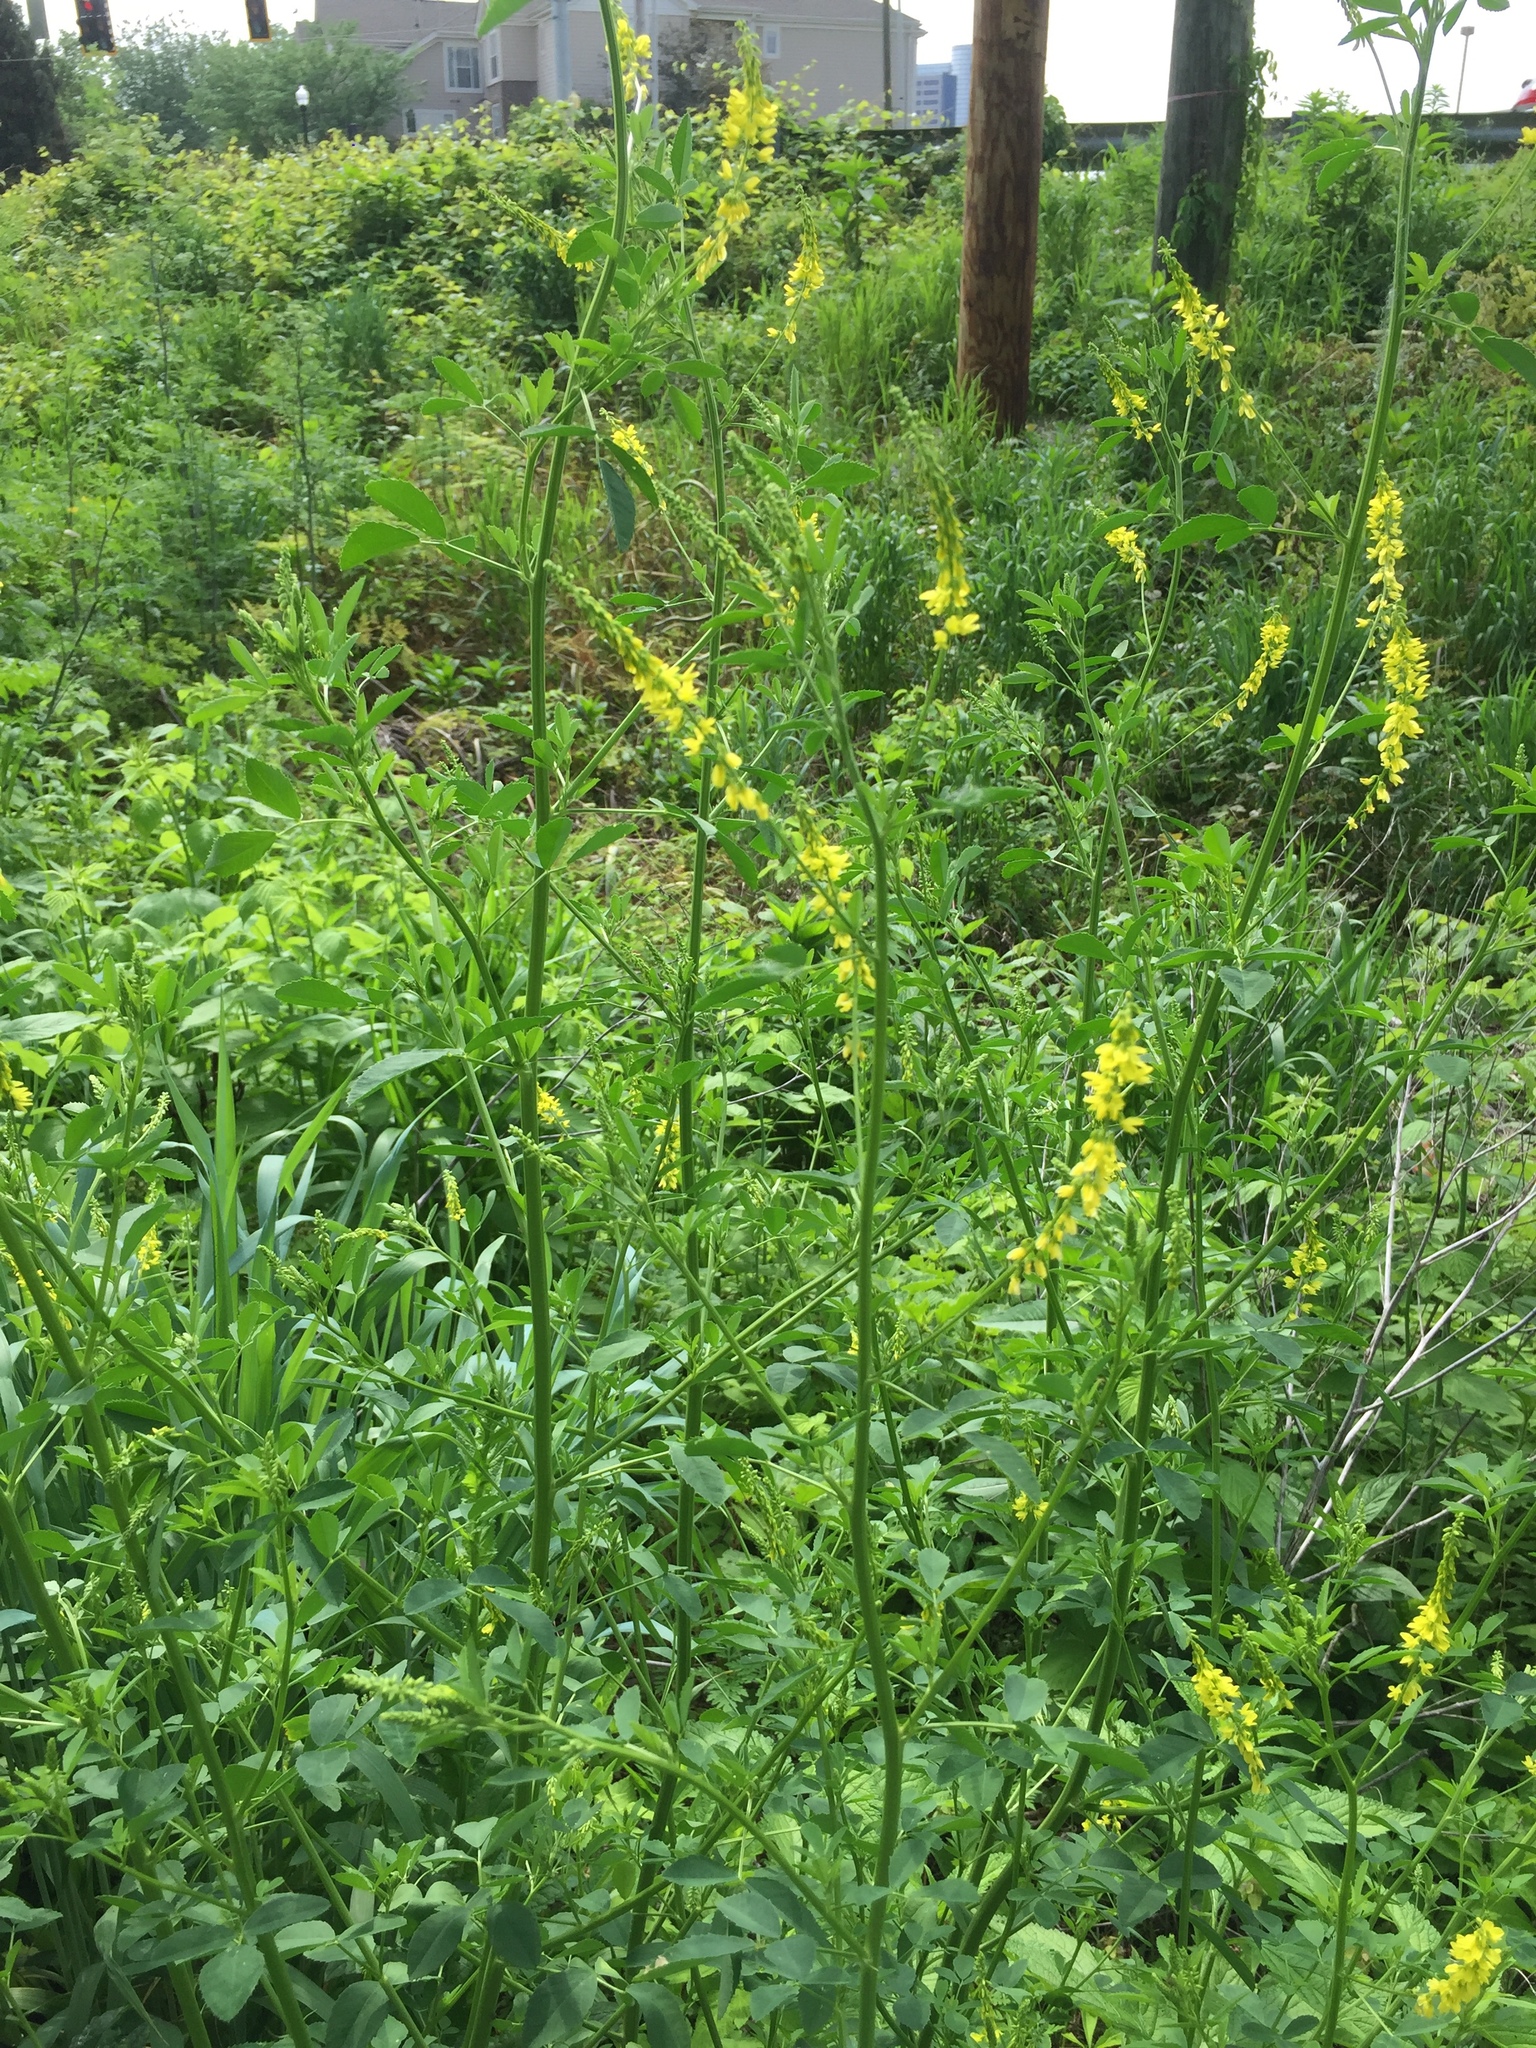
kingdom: Plantae
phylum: Tracheophyta
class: Magnoliopsida
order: Fabales
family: Fabaceae
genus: Melilotus
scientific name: Melilotus officinalis
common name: Sweetclover
